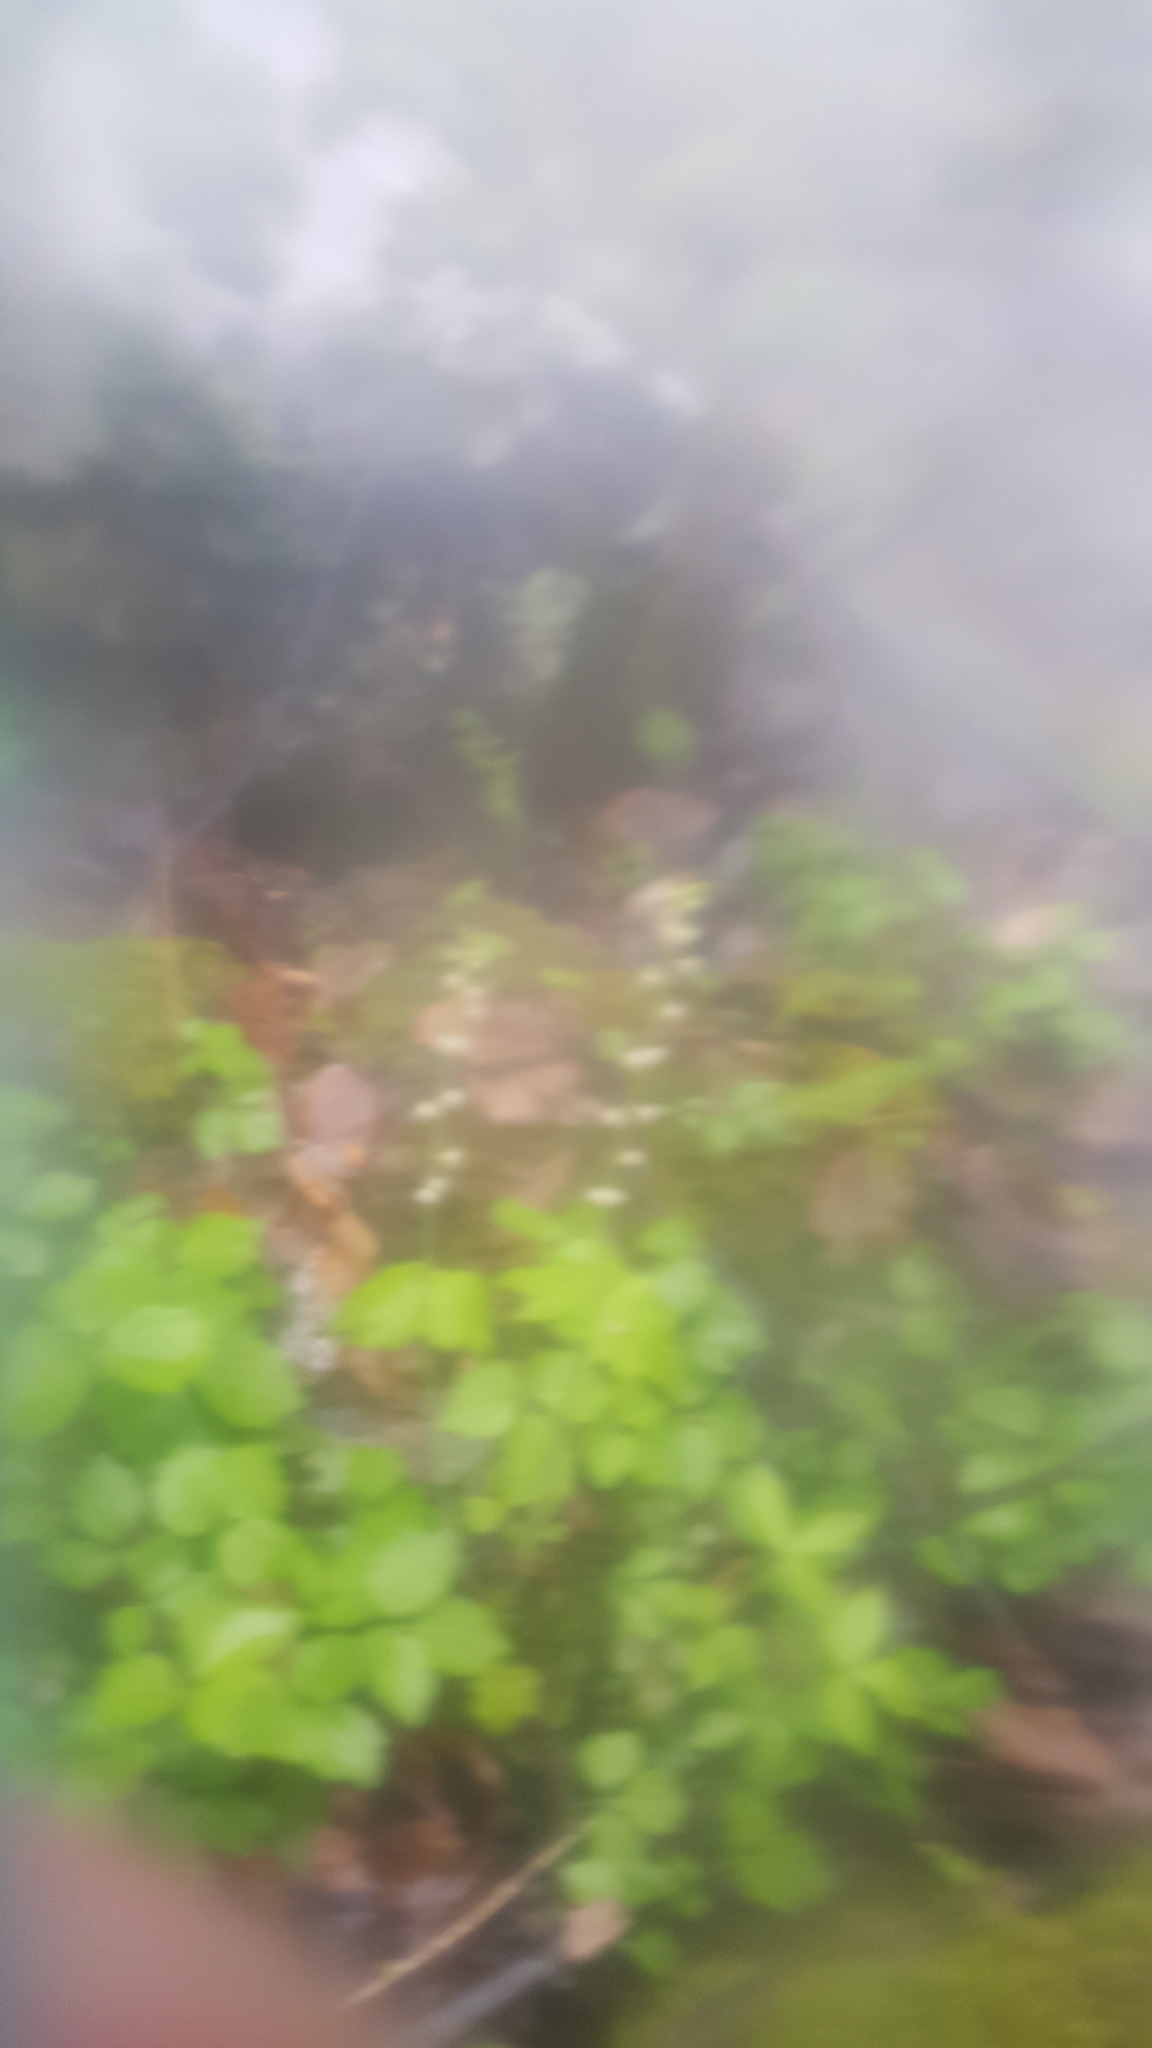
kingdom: Plantae
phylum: Tracheophyta
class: Magnoliopsida
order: Saxifragales
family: Saxifragaceae
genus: Mitella
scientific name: Mitella diphylla
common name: Coolwort
